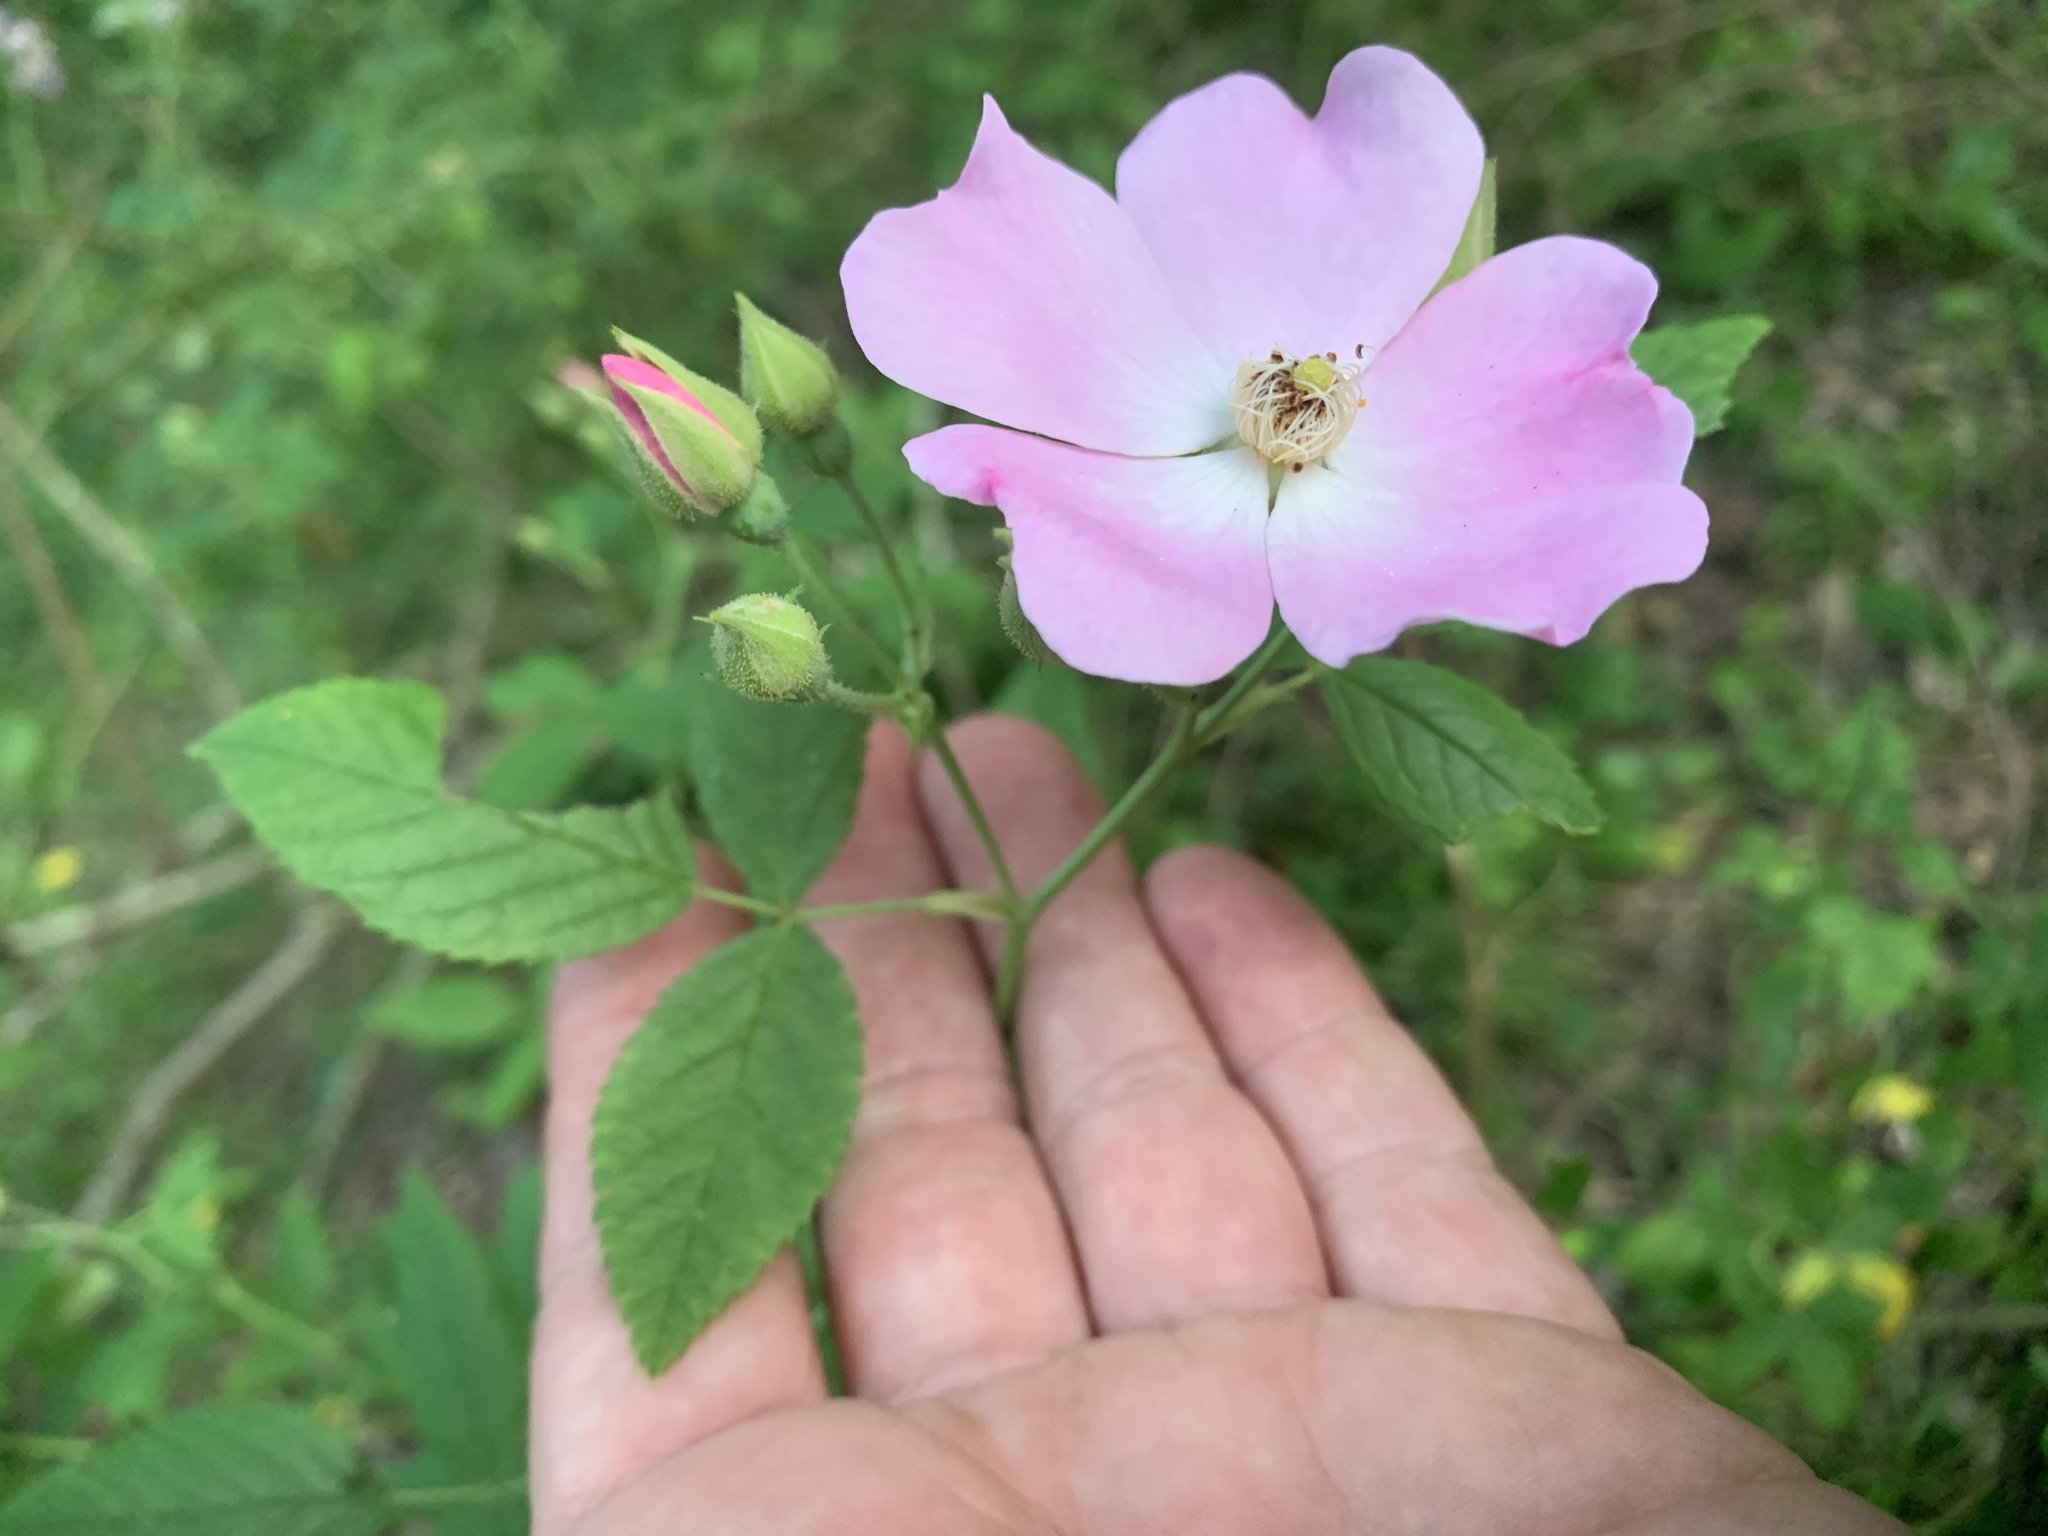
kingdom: Plantae
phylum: Tracheophyta
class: Magnoliopsida
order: Rosales
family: Rosaceae
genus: Rosa
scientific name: Rosa setigera
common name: Prairie rose
